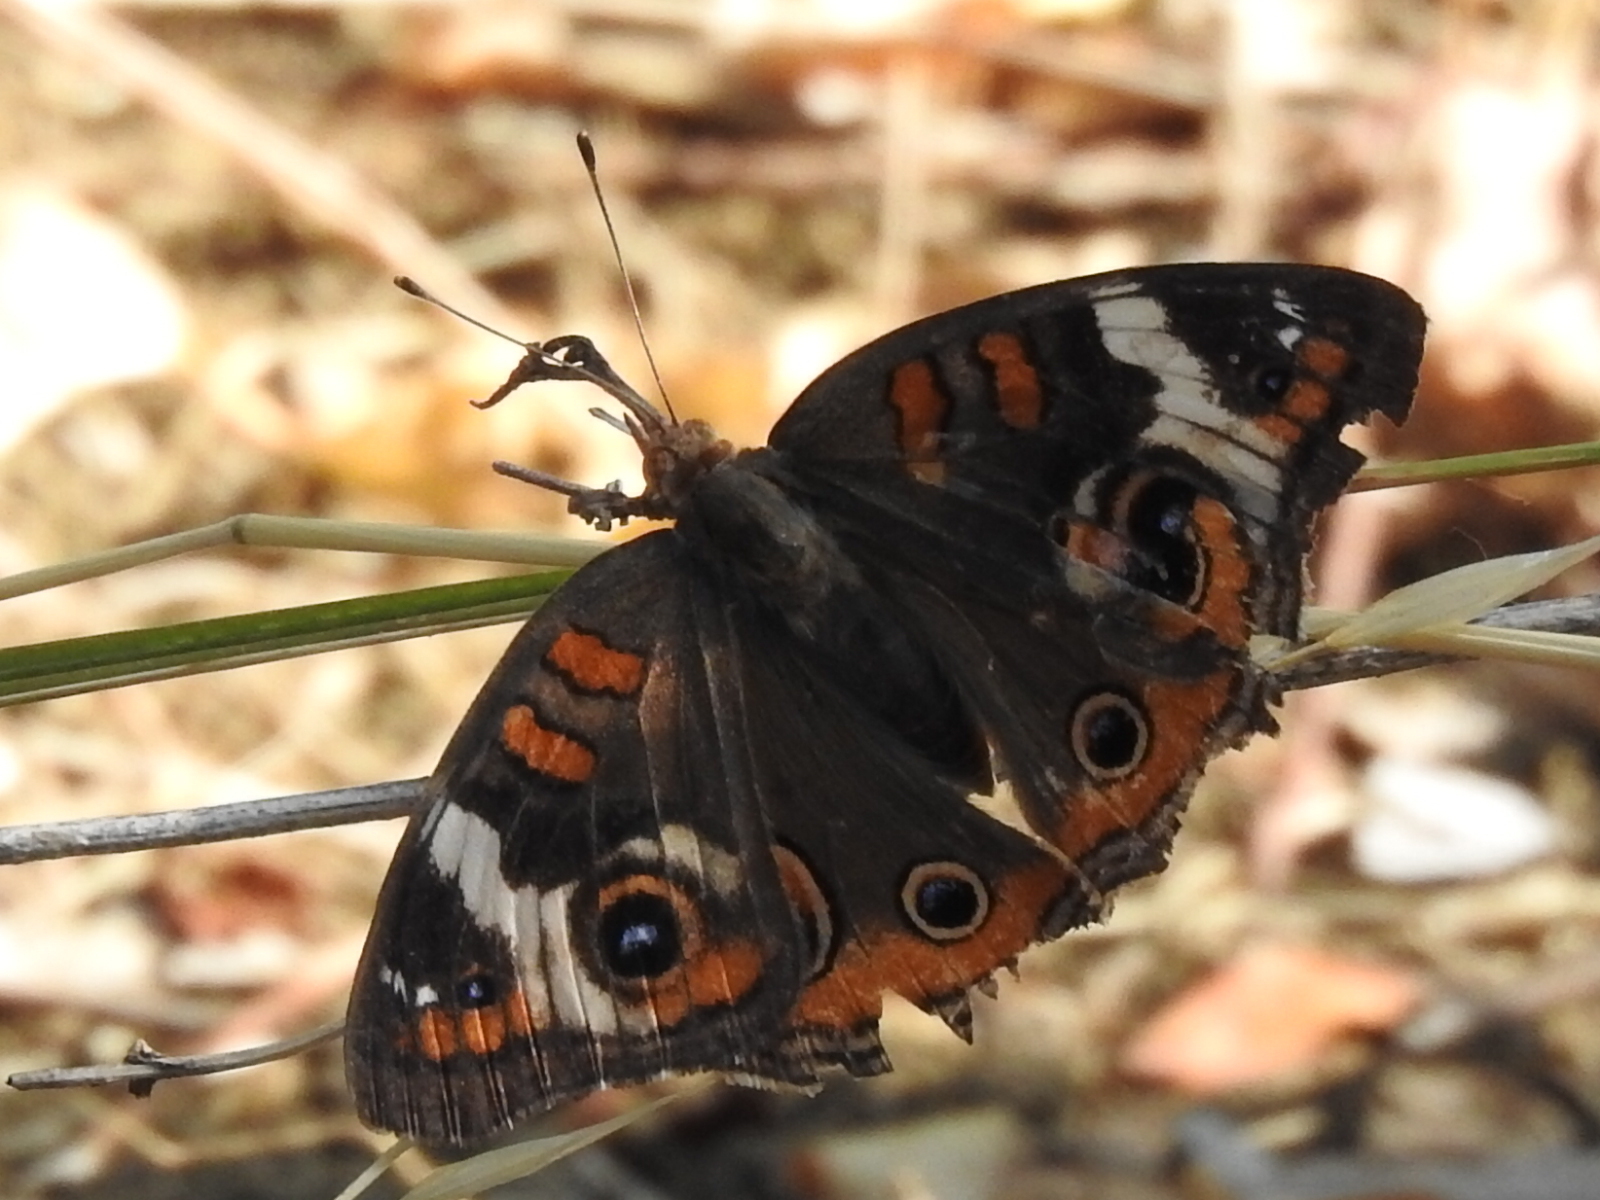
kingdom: Animalia
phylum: Arthropoda
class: Insecta
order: Lepidoptera
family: Nymphalidae
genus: Junonia
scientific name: Junonia coenia
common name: Common buckeye
